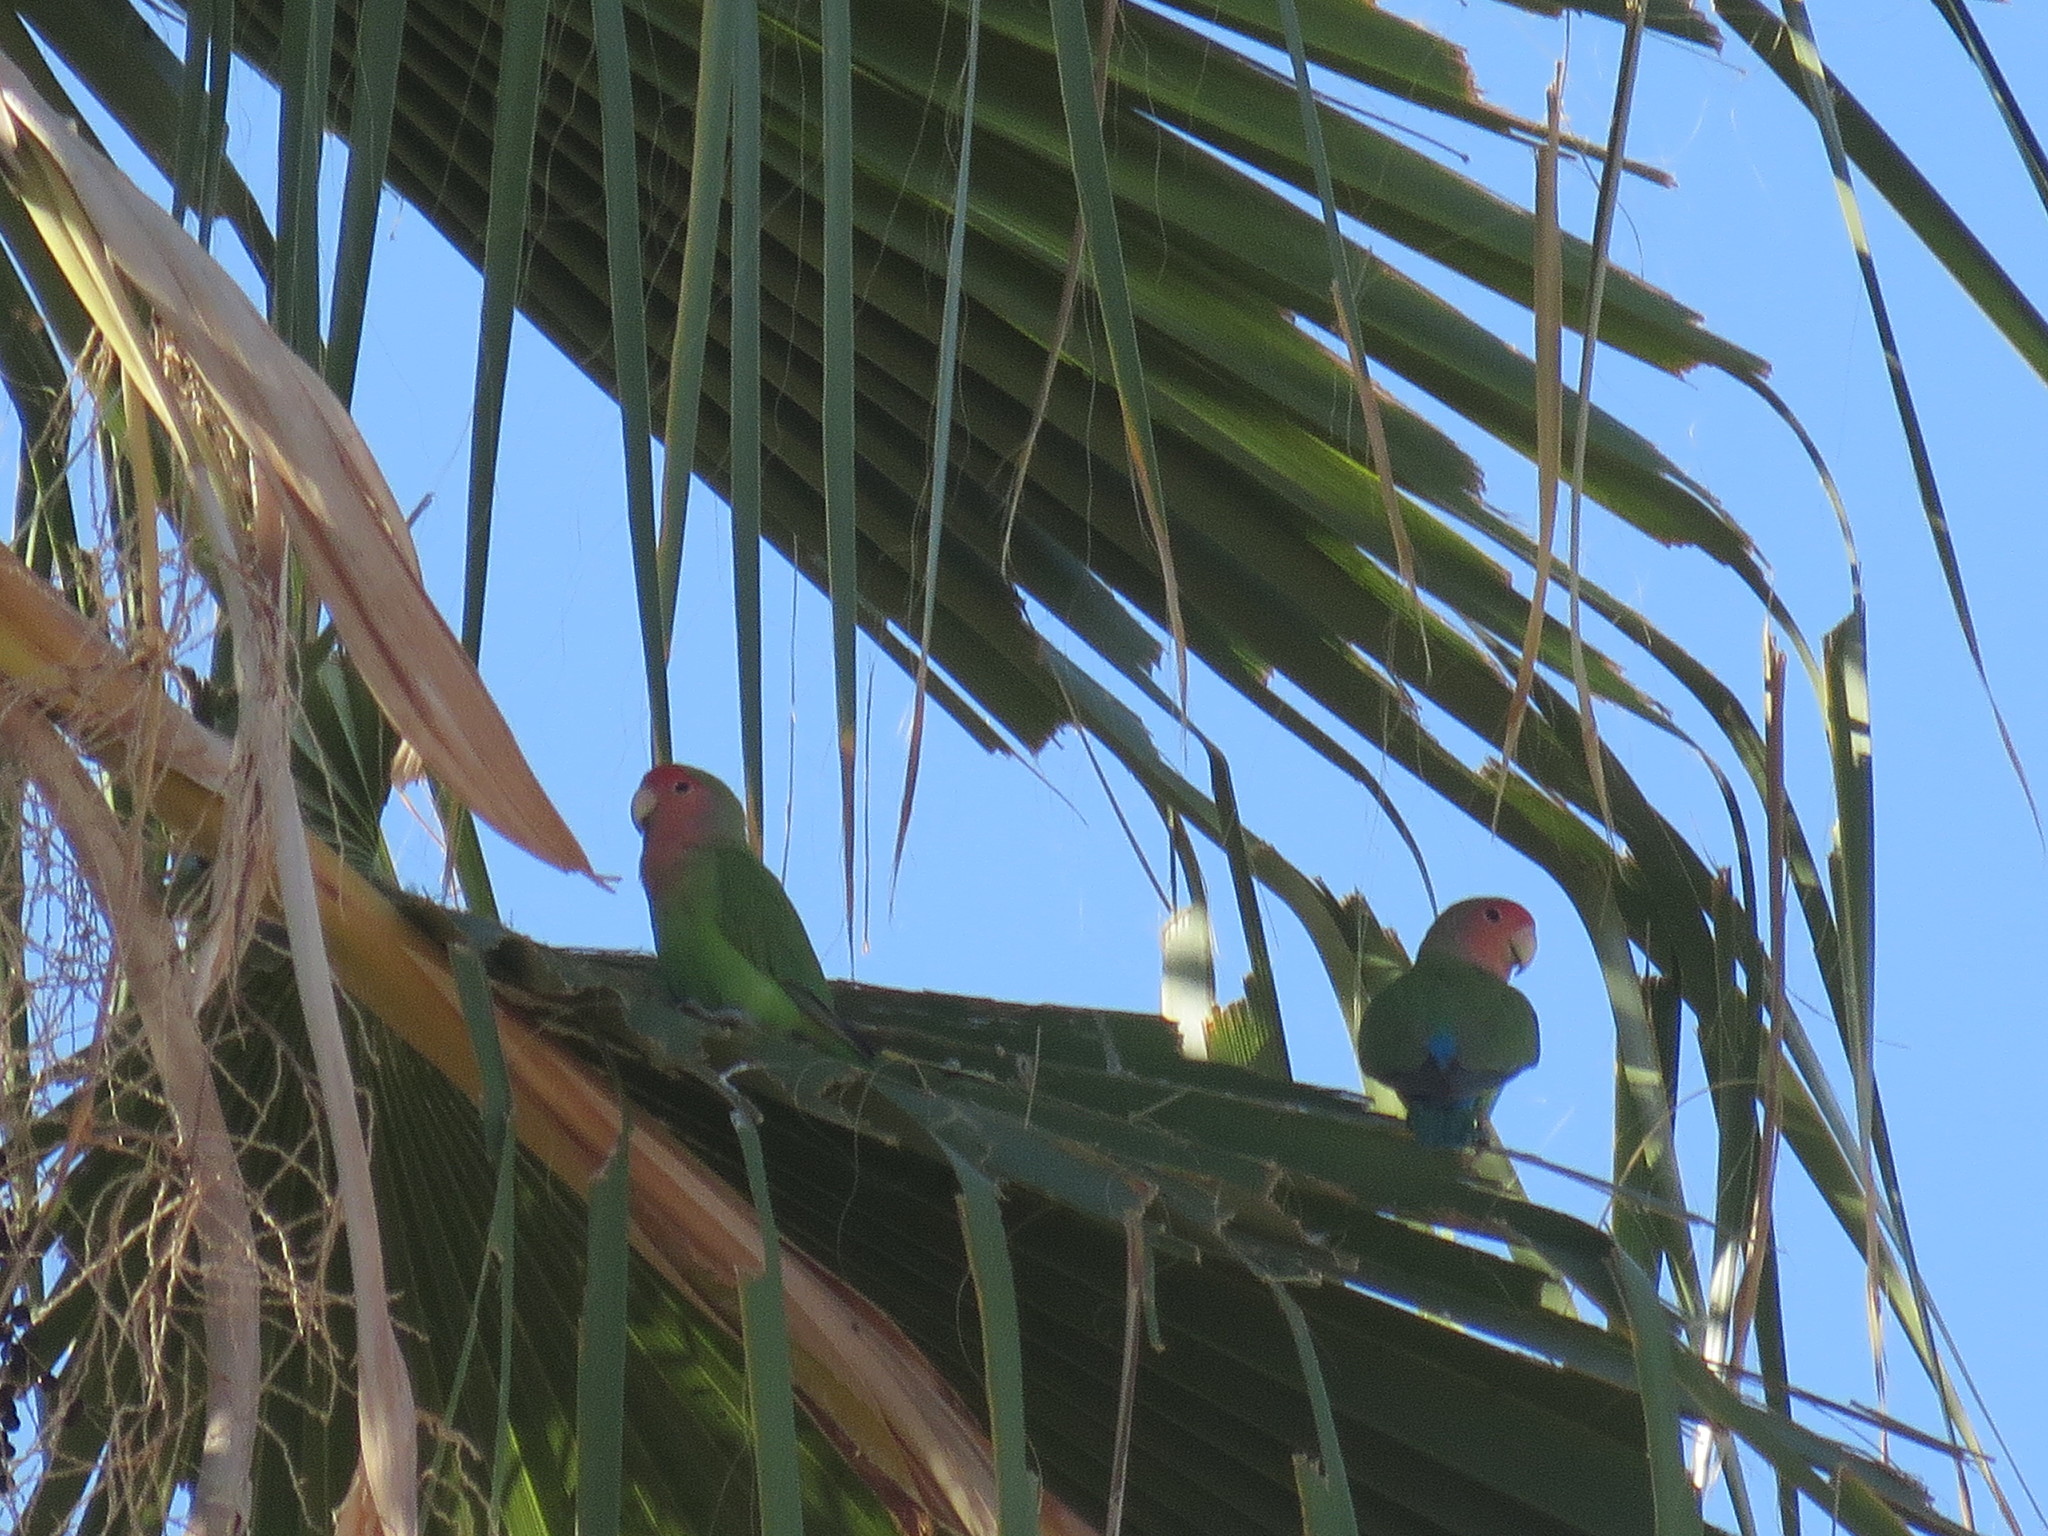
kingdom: Animalia
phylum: Chordata
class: Aves
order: Psittaciformes
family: Psittacidae
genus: Agapornis
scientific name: Agapornis roseicollis
